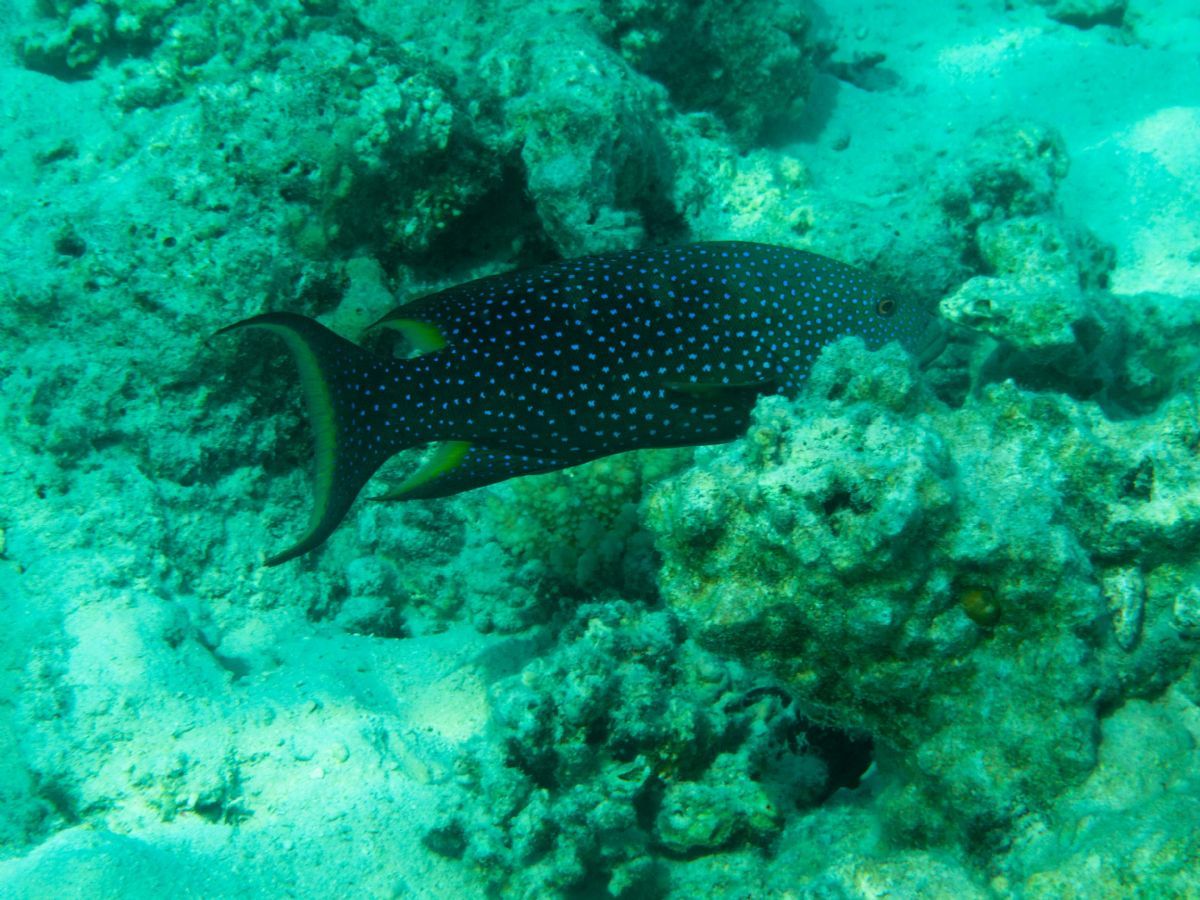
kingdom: Animalia
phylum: Chordata
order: Perciformes
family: Serranidae
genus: Variola
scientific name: Variola louti
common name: Yellow-edged lyretail
